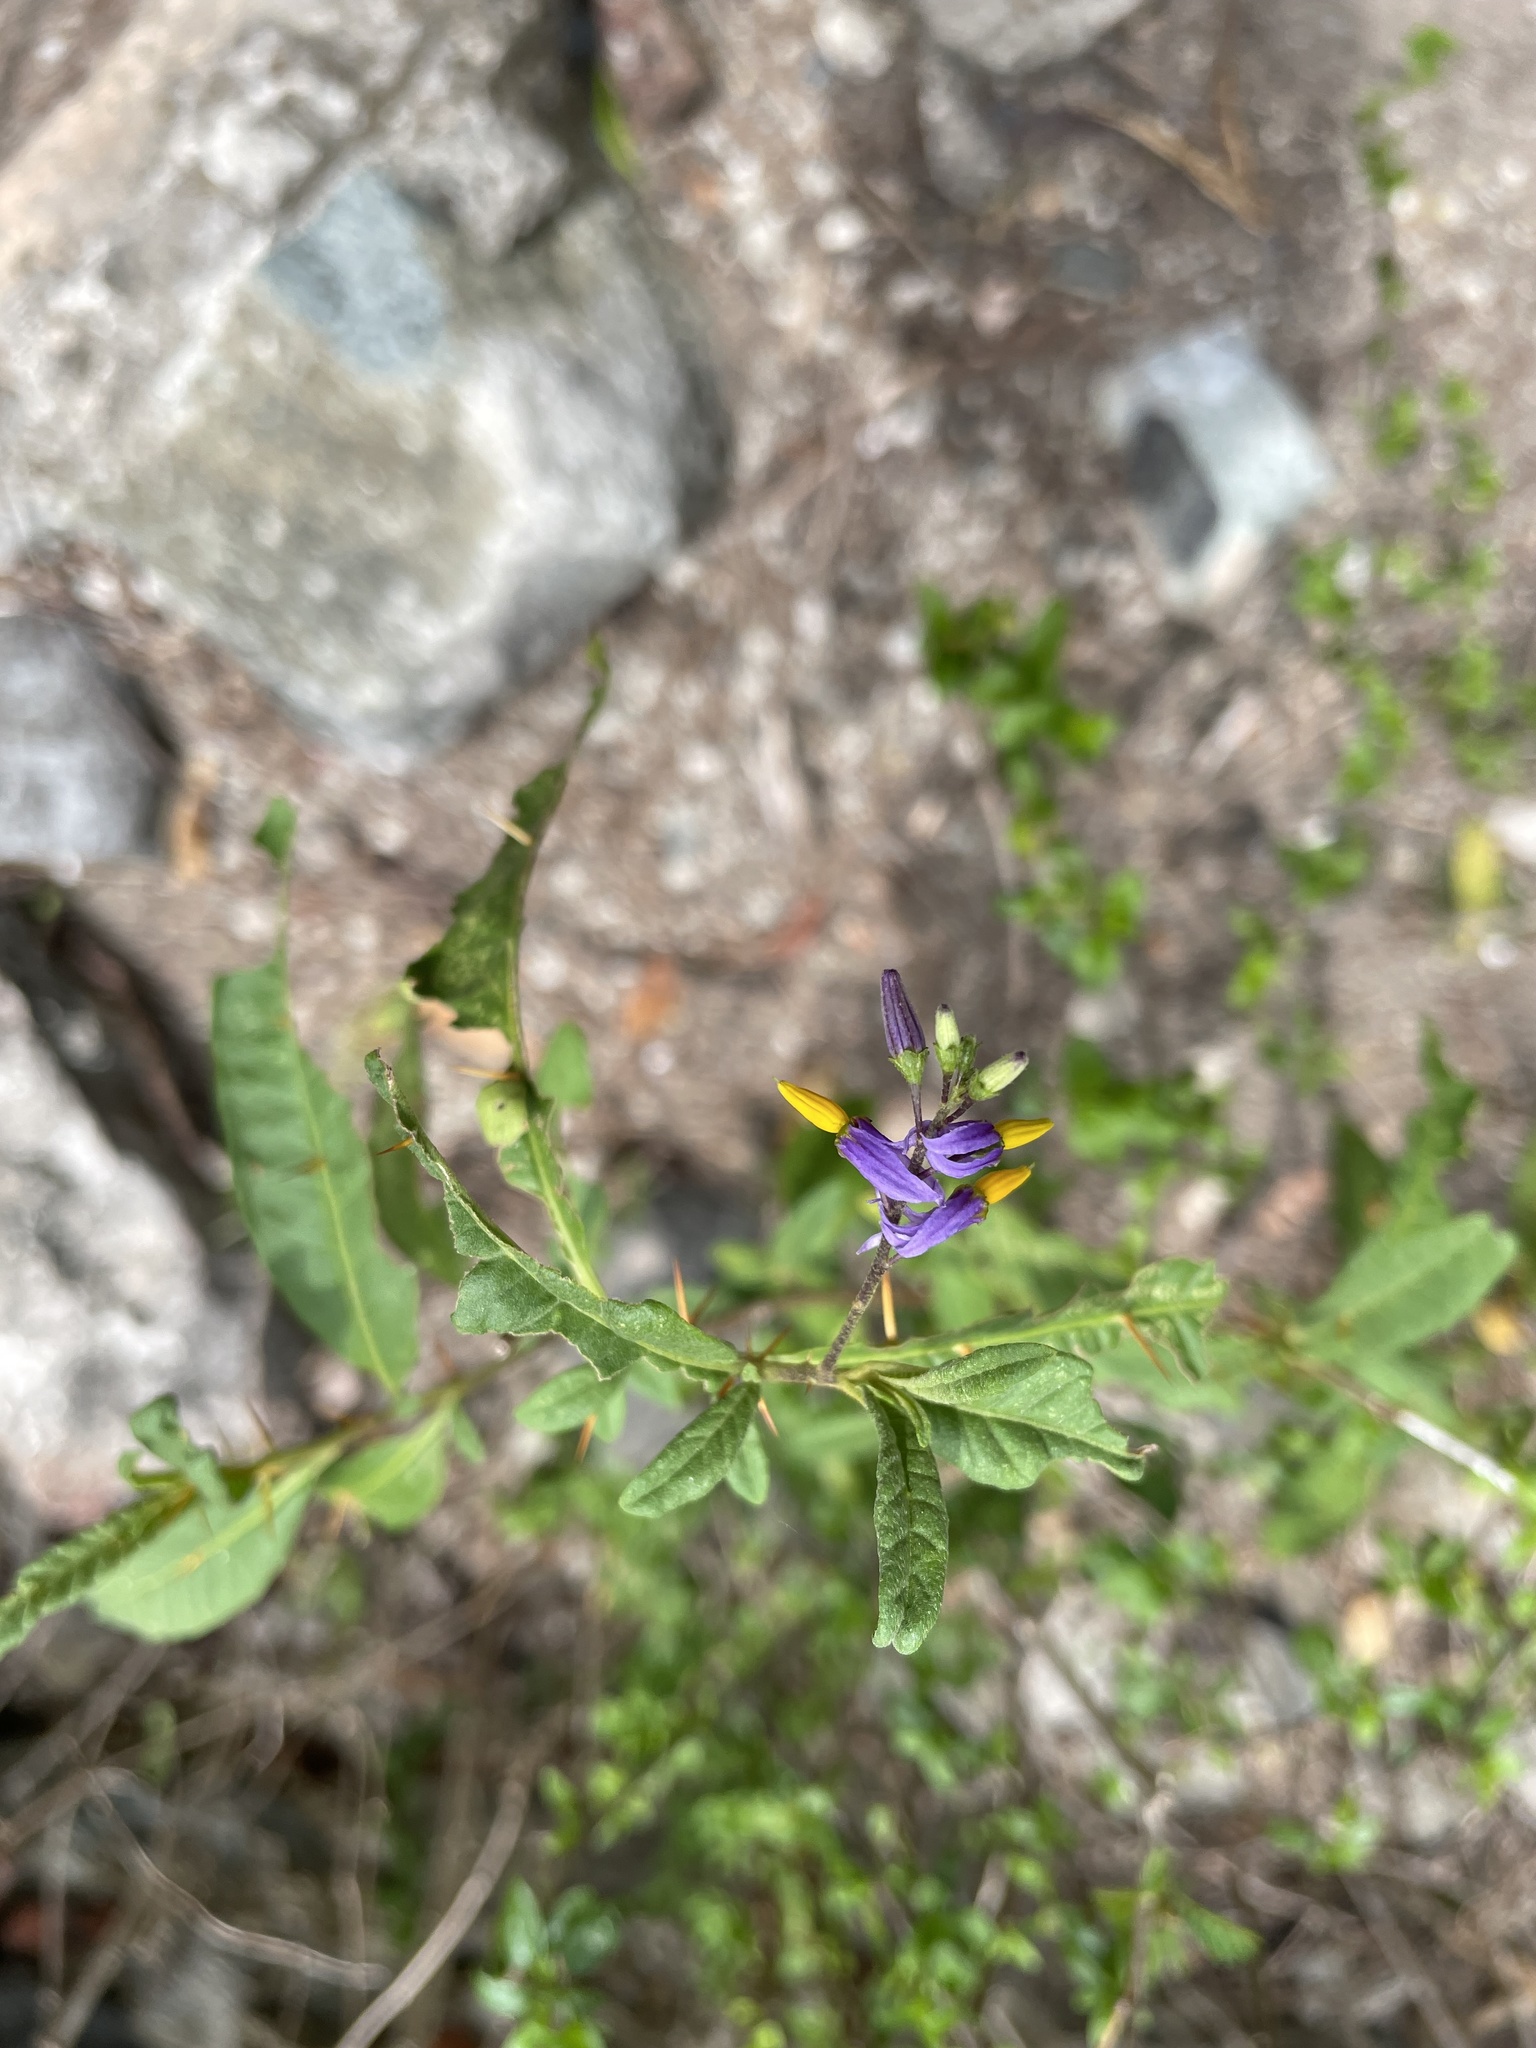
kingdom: Plantae
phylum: Tracheophyta
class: Magnoliopsida
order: Solanales
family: Solanaceae
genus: Solanum
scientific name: Solanum bahamense
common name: Canker-berry
